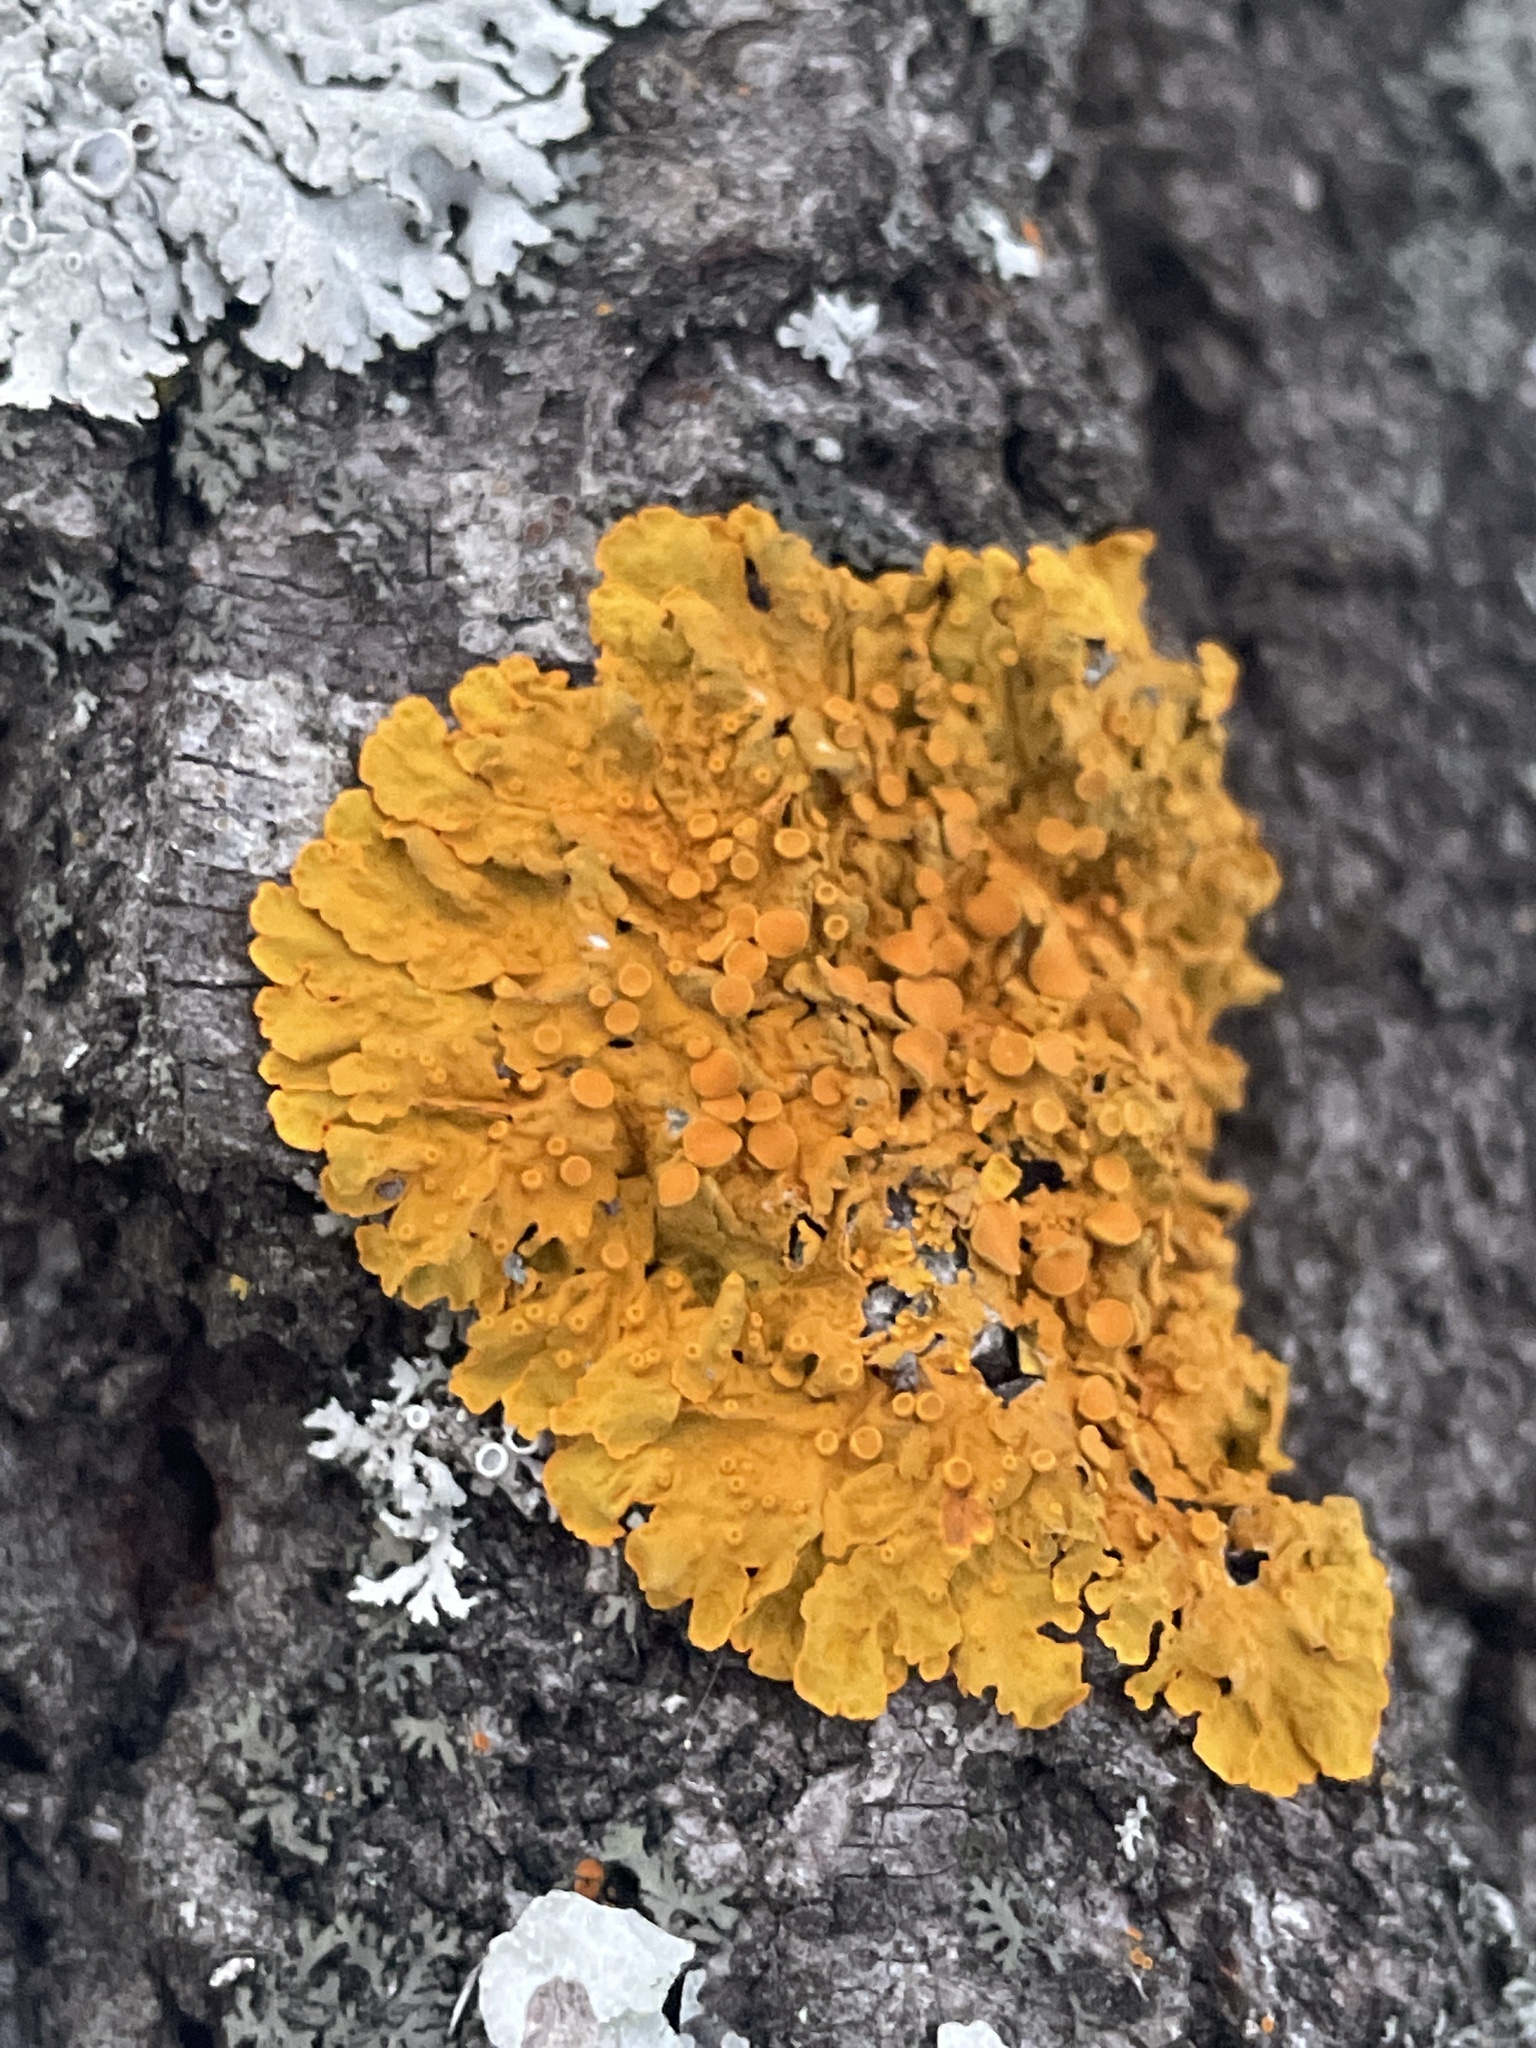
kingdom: Fungi
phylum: Ascomycota
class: Lecanoromycetes
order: Teloschistales
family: Teloschistaceae
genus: Xanthoria
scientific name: Xanthoria parietina
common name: Common orange lichen
